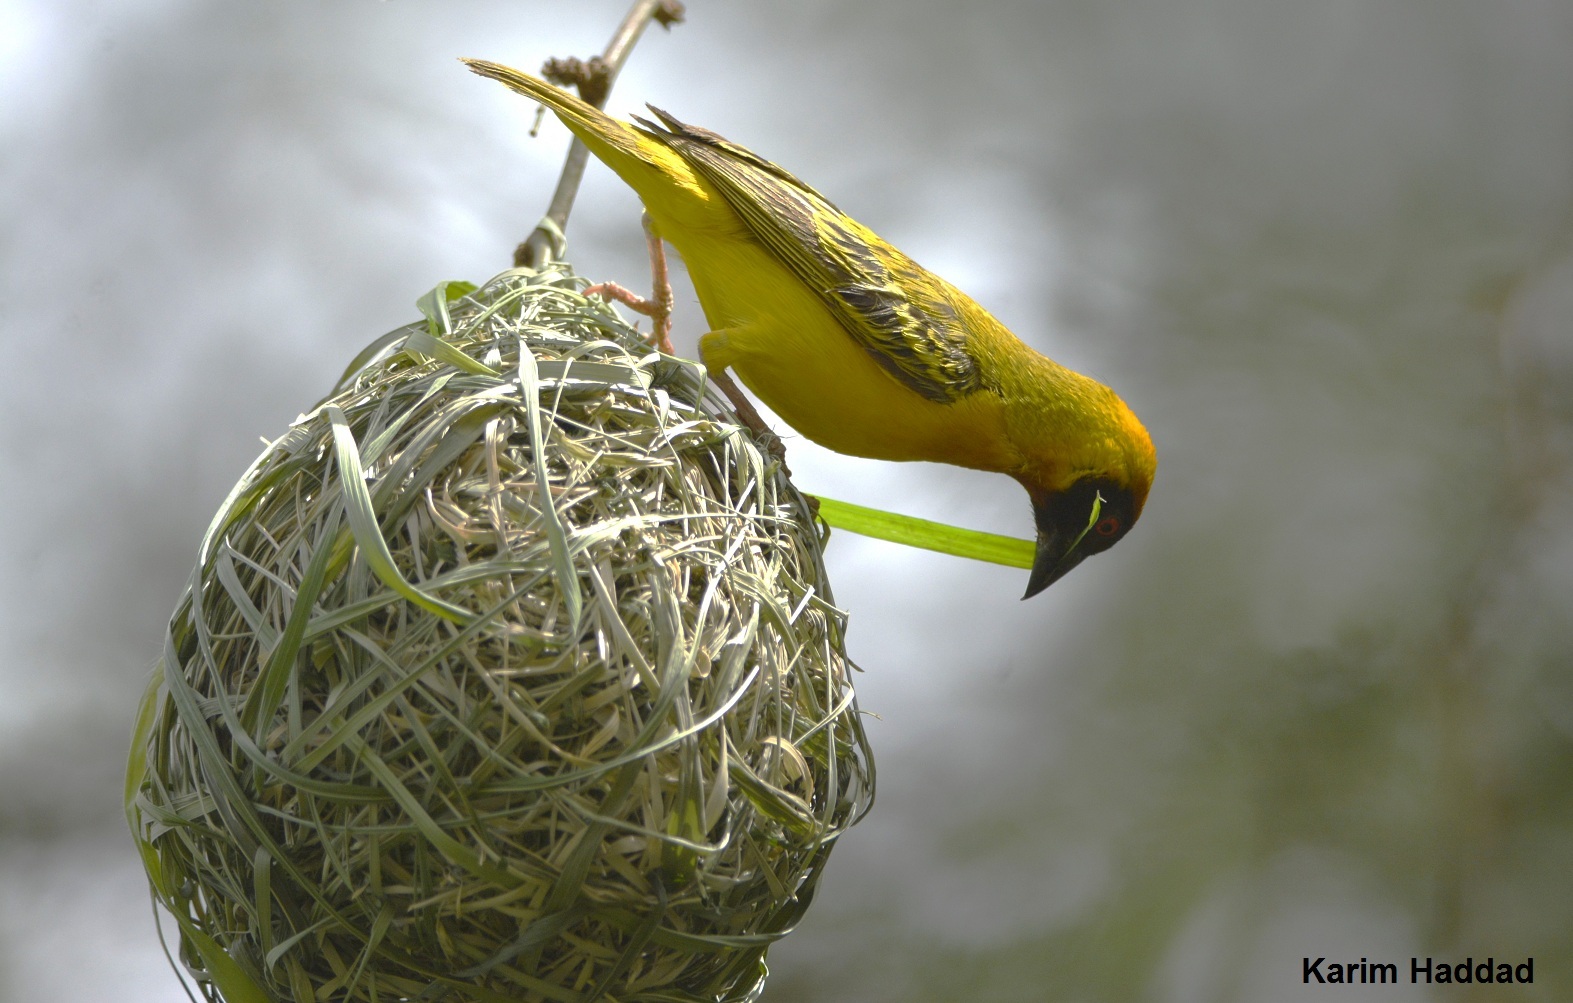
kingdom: Animalia
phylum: Chordata
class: Aves
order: Passeriformes
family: Ploceidae
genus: Ploceus
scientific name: Ploceus vitellinus
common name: Vitelline masked weaver
